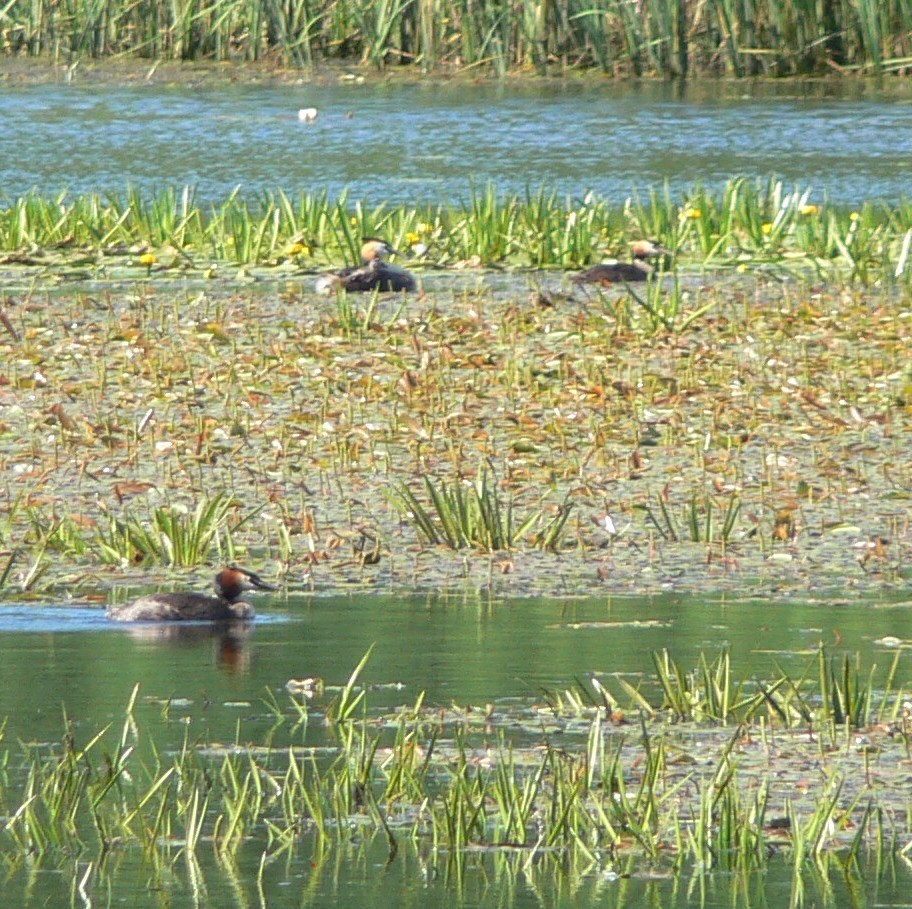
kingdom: Animalia
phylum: Chordata
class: Aves
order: Podicipediformes
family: Podicipedidae
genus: Podiceps
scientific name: Podiceps cristatus
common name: Great crested grebe
